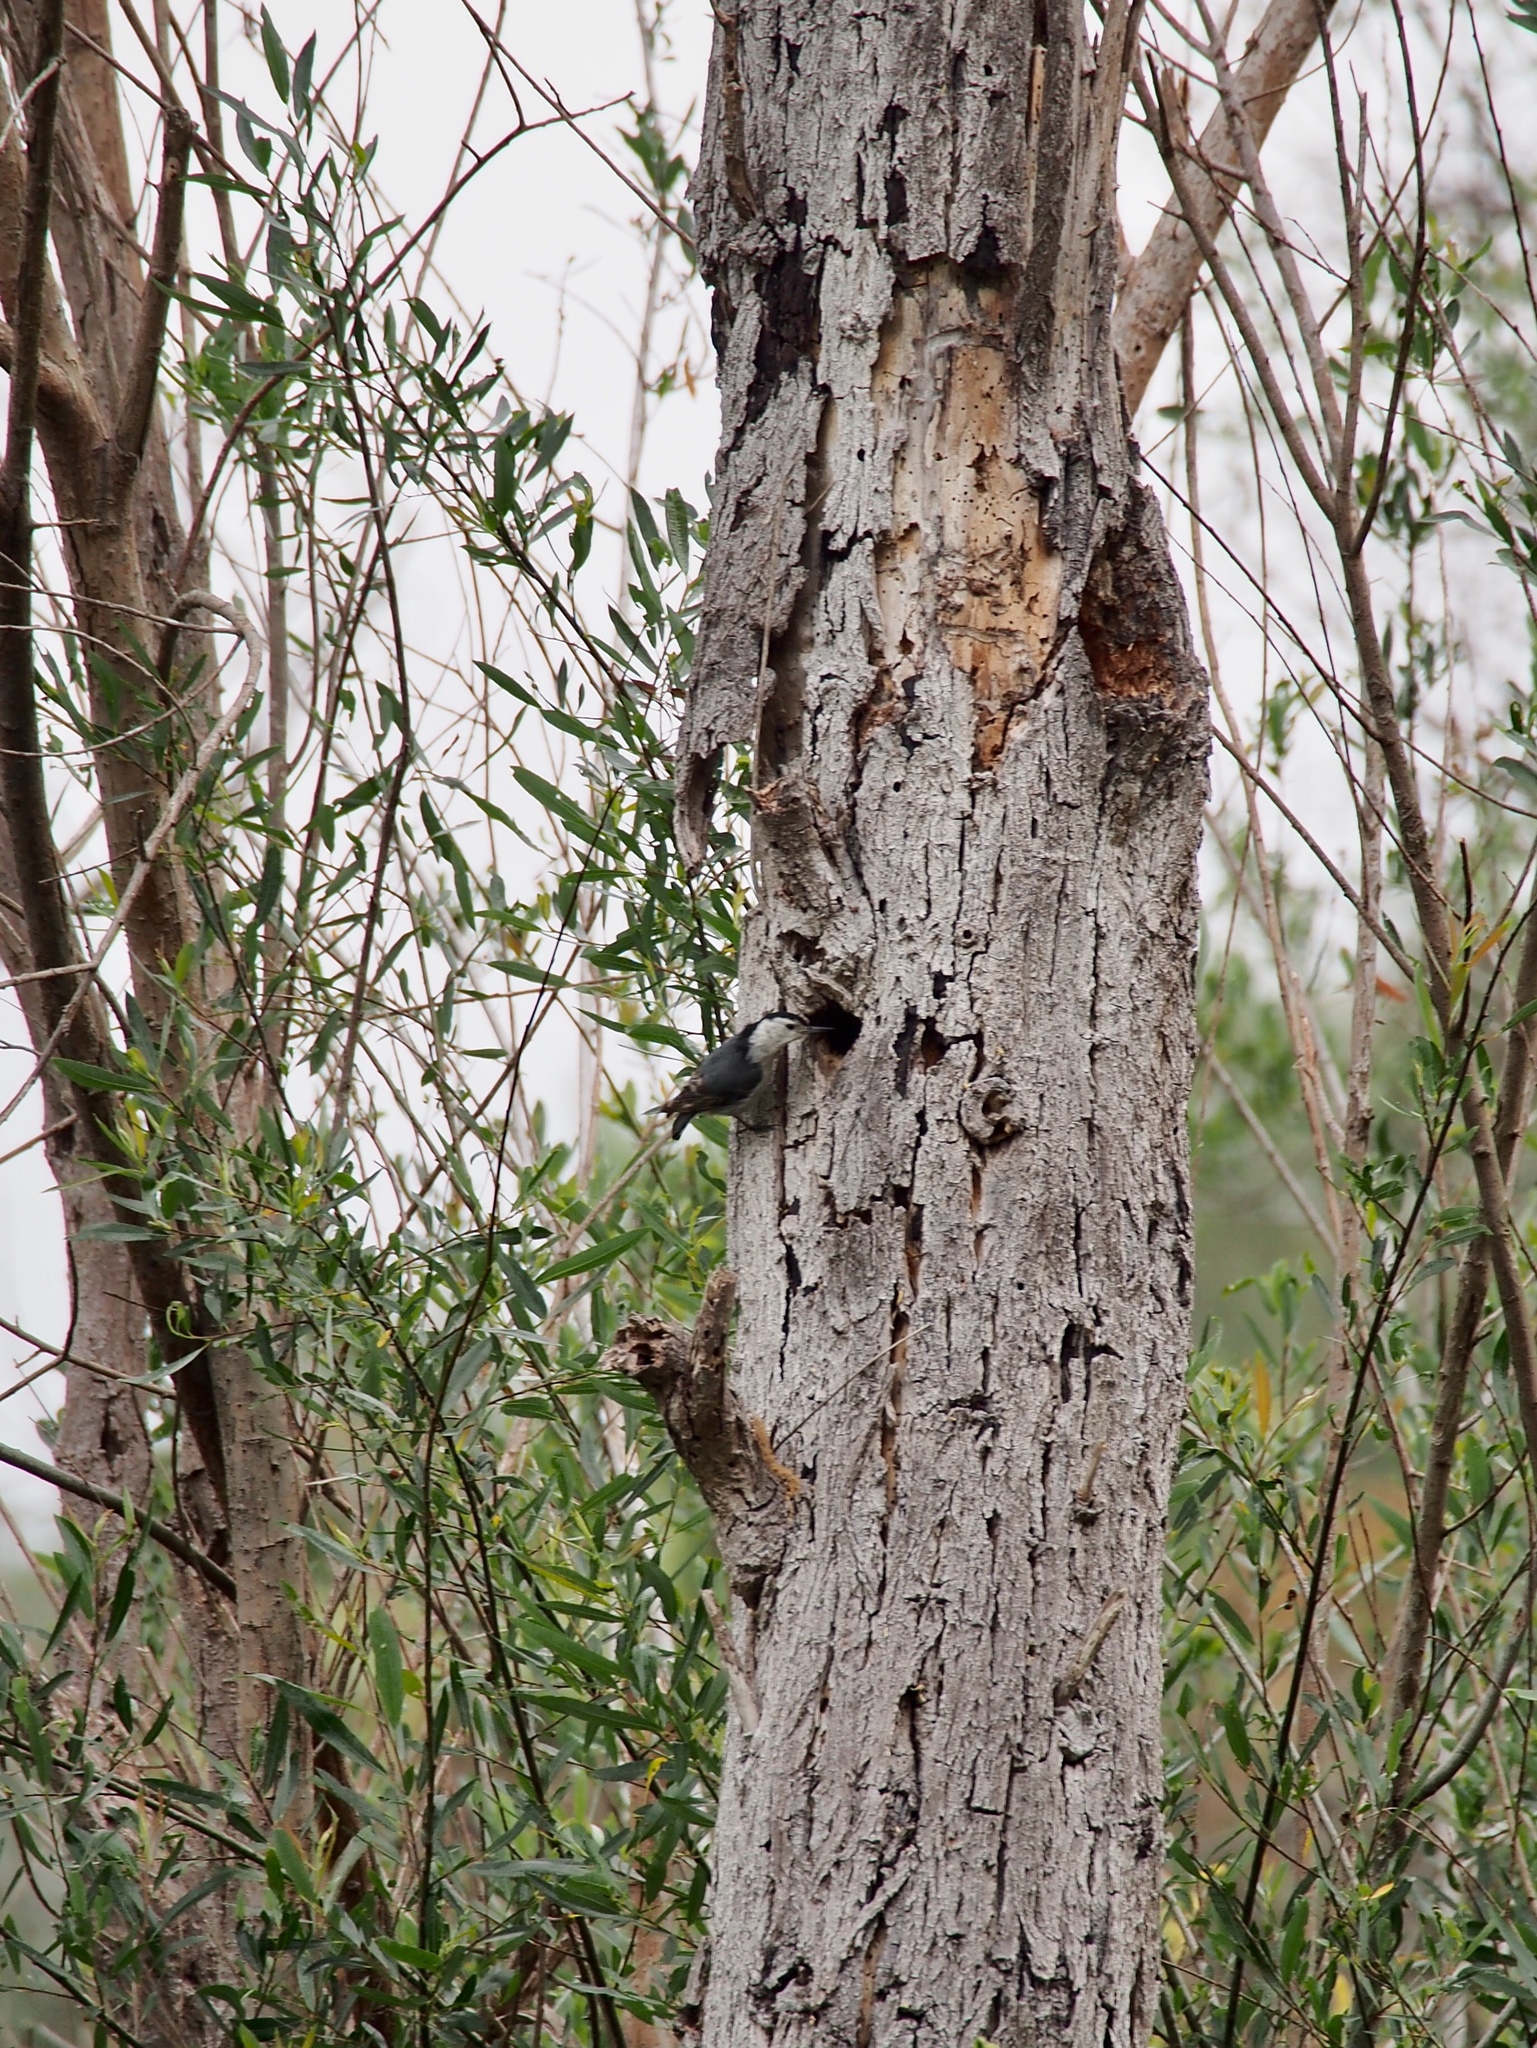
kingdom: Animalia
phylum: Chordata
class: Aves
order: Passeriformes
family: Sittidae
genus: Sitta
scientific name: Sitta carolinensis
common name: White-breasted nuthatch
